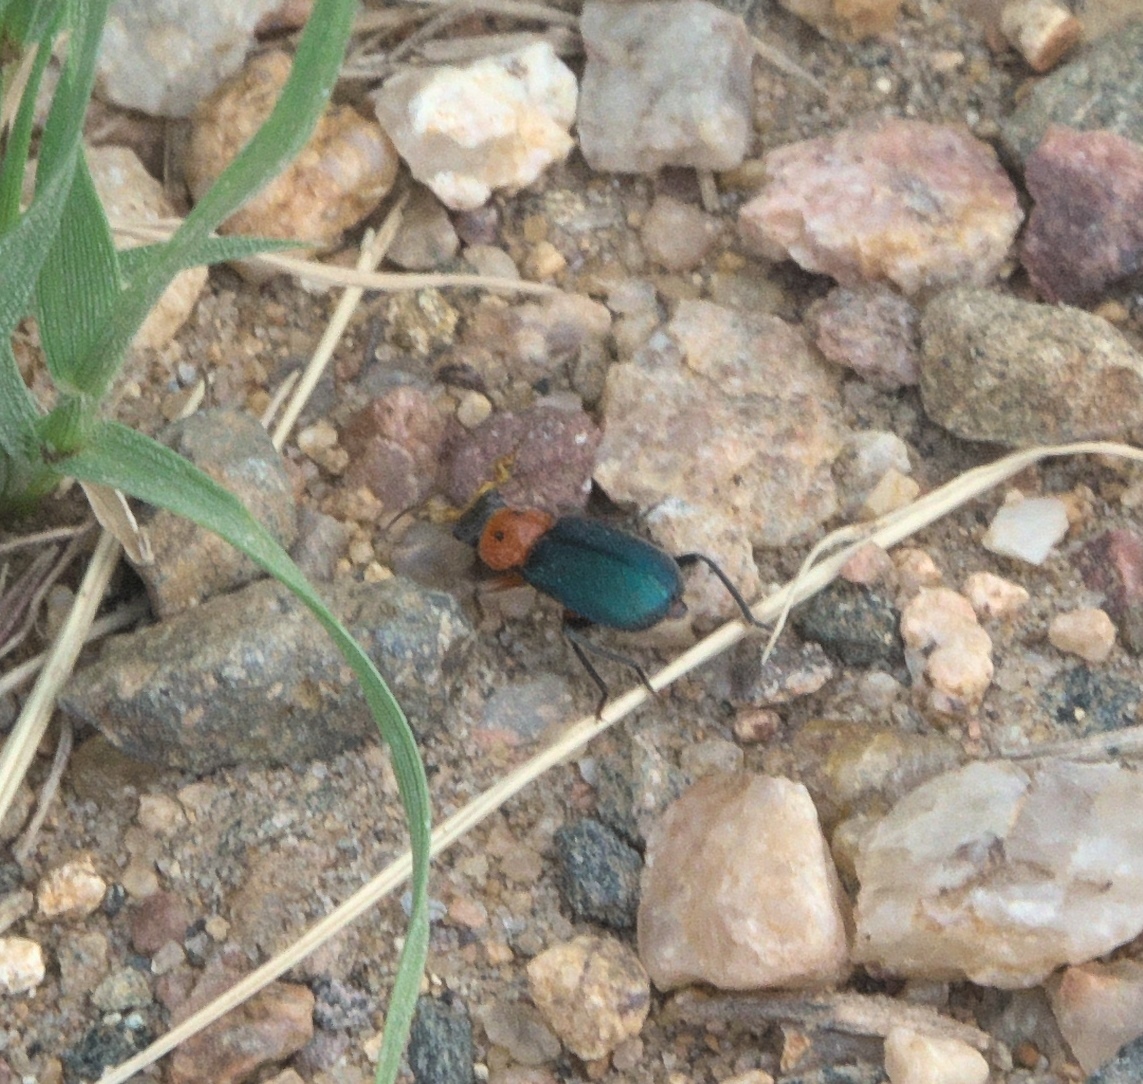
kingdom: Animalia
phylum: Arthropoda
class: Insecta
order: Coleoptera
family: Melyridae
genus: Collops
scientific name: Collops bipunctatus
